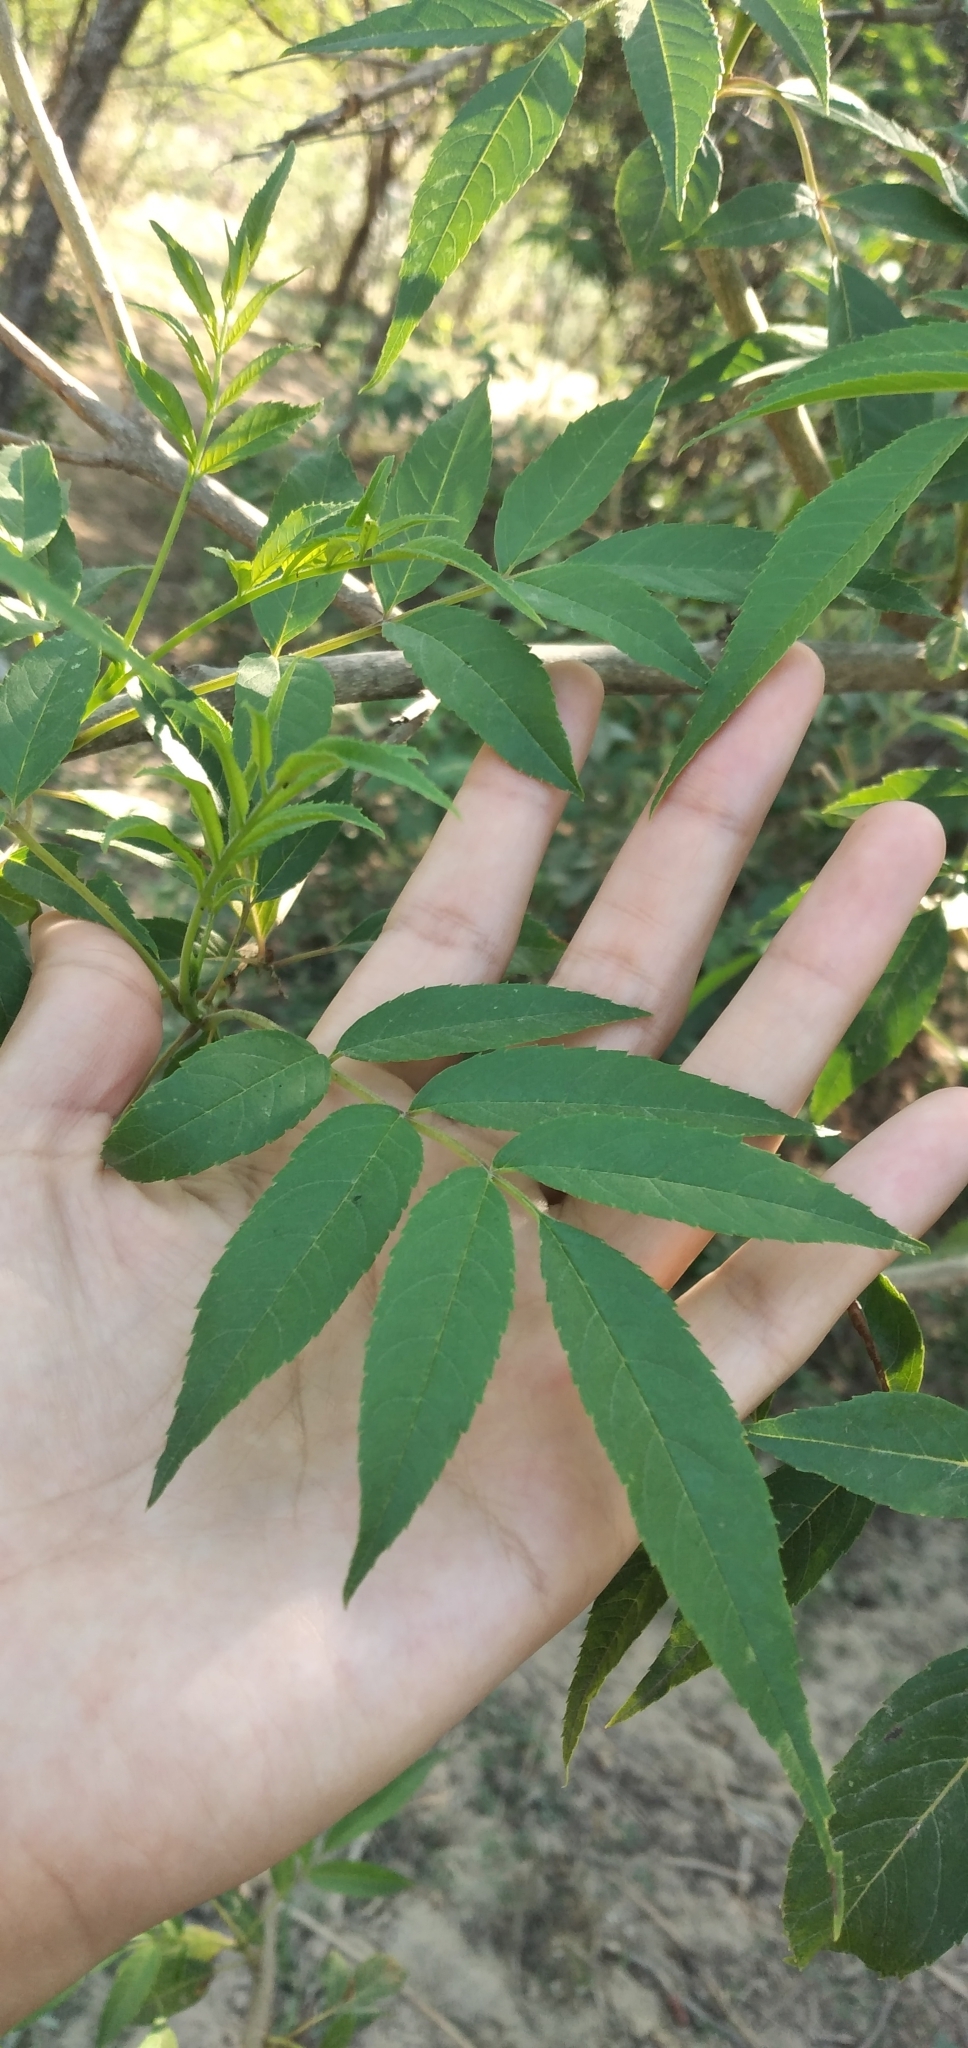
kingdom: Plantae
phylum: Tracheophyta
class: Magnoliopsida
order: Lamiales
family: Bignoniaceae
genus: Tecoma
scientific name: Tecoma stans
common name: Yellow trumpetbush
